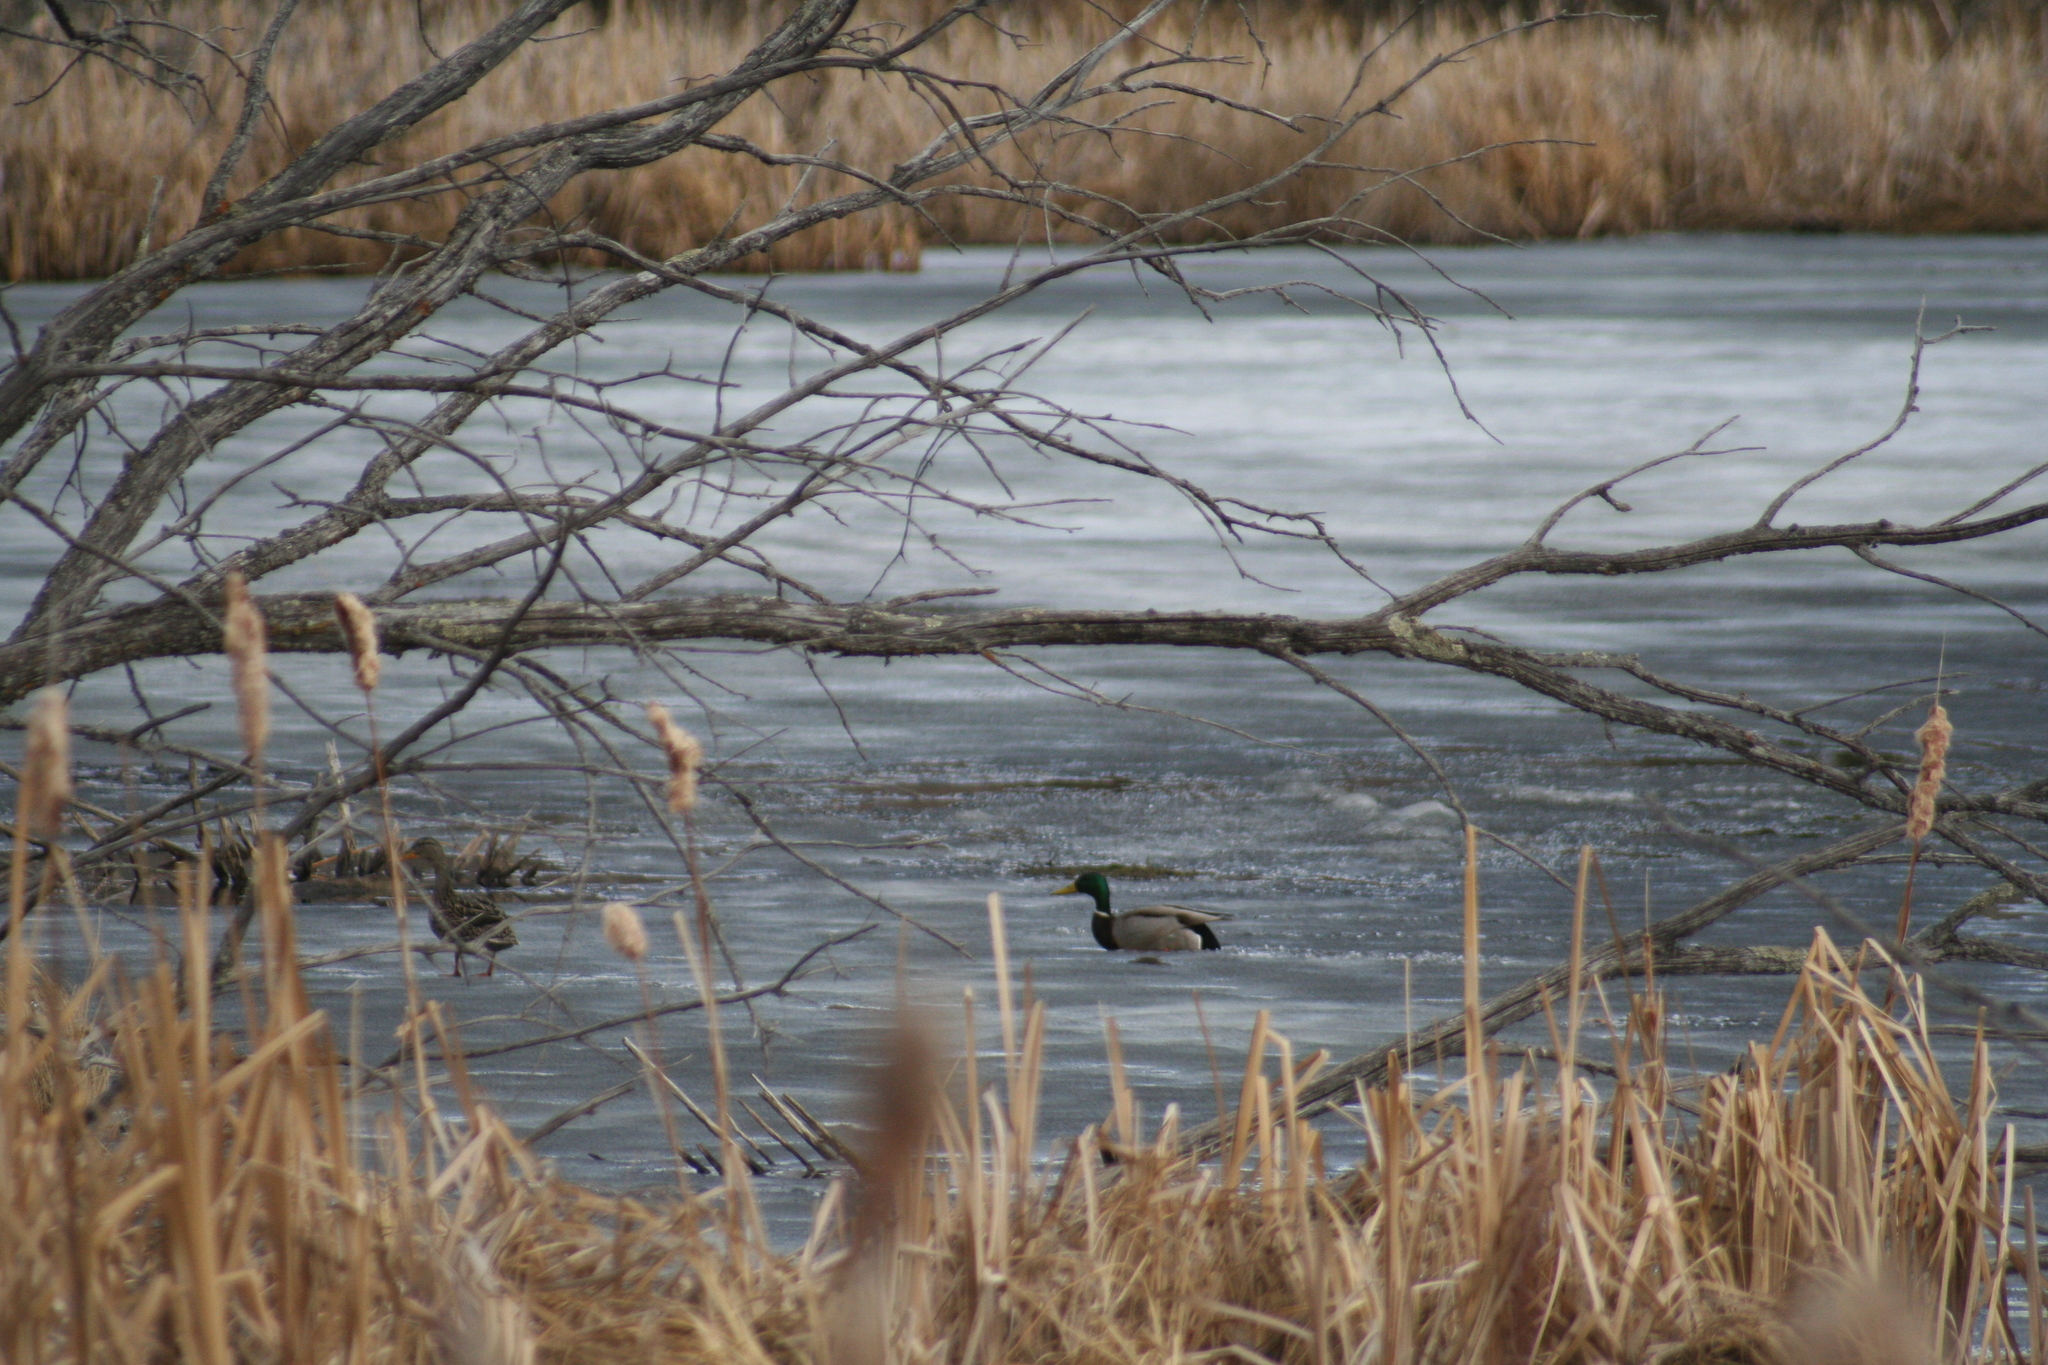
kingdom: Animalia
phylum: Chordata
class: Aves
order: Anseriformes
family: Anatidae
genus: Anas
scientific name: Anas platyrhynchos
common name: Mallard
